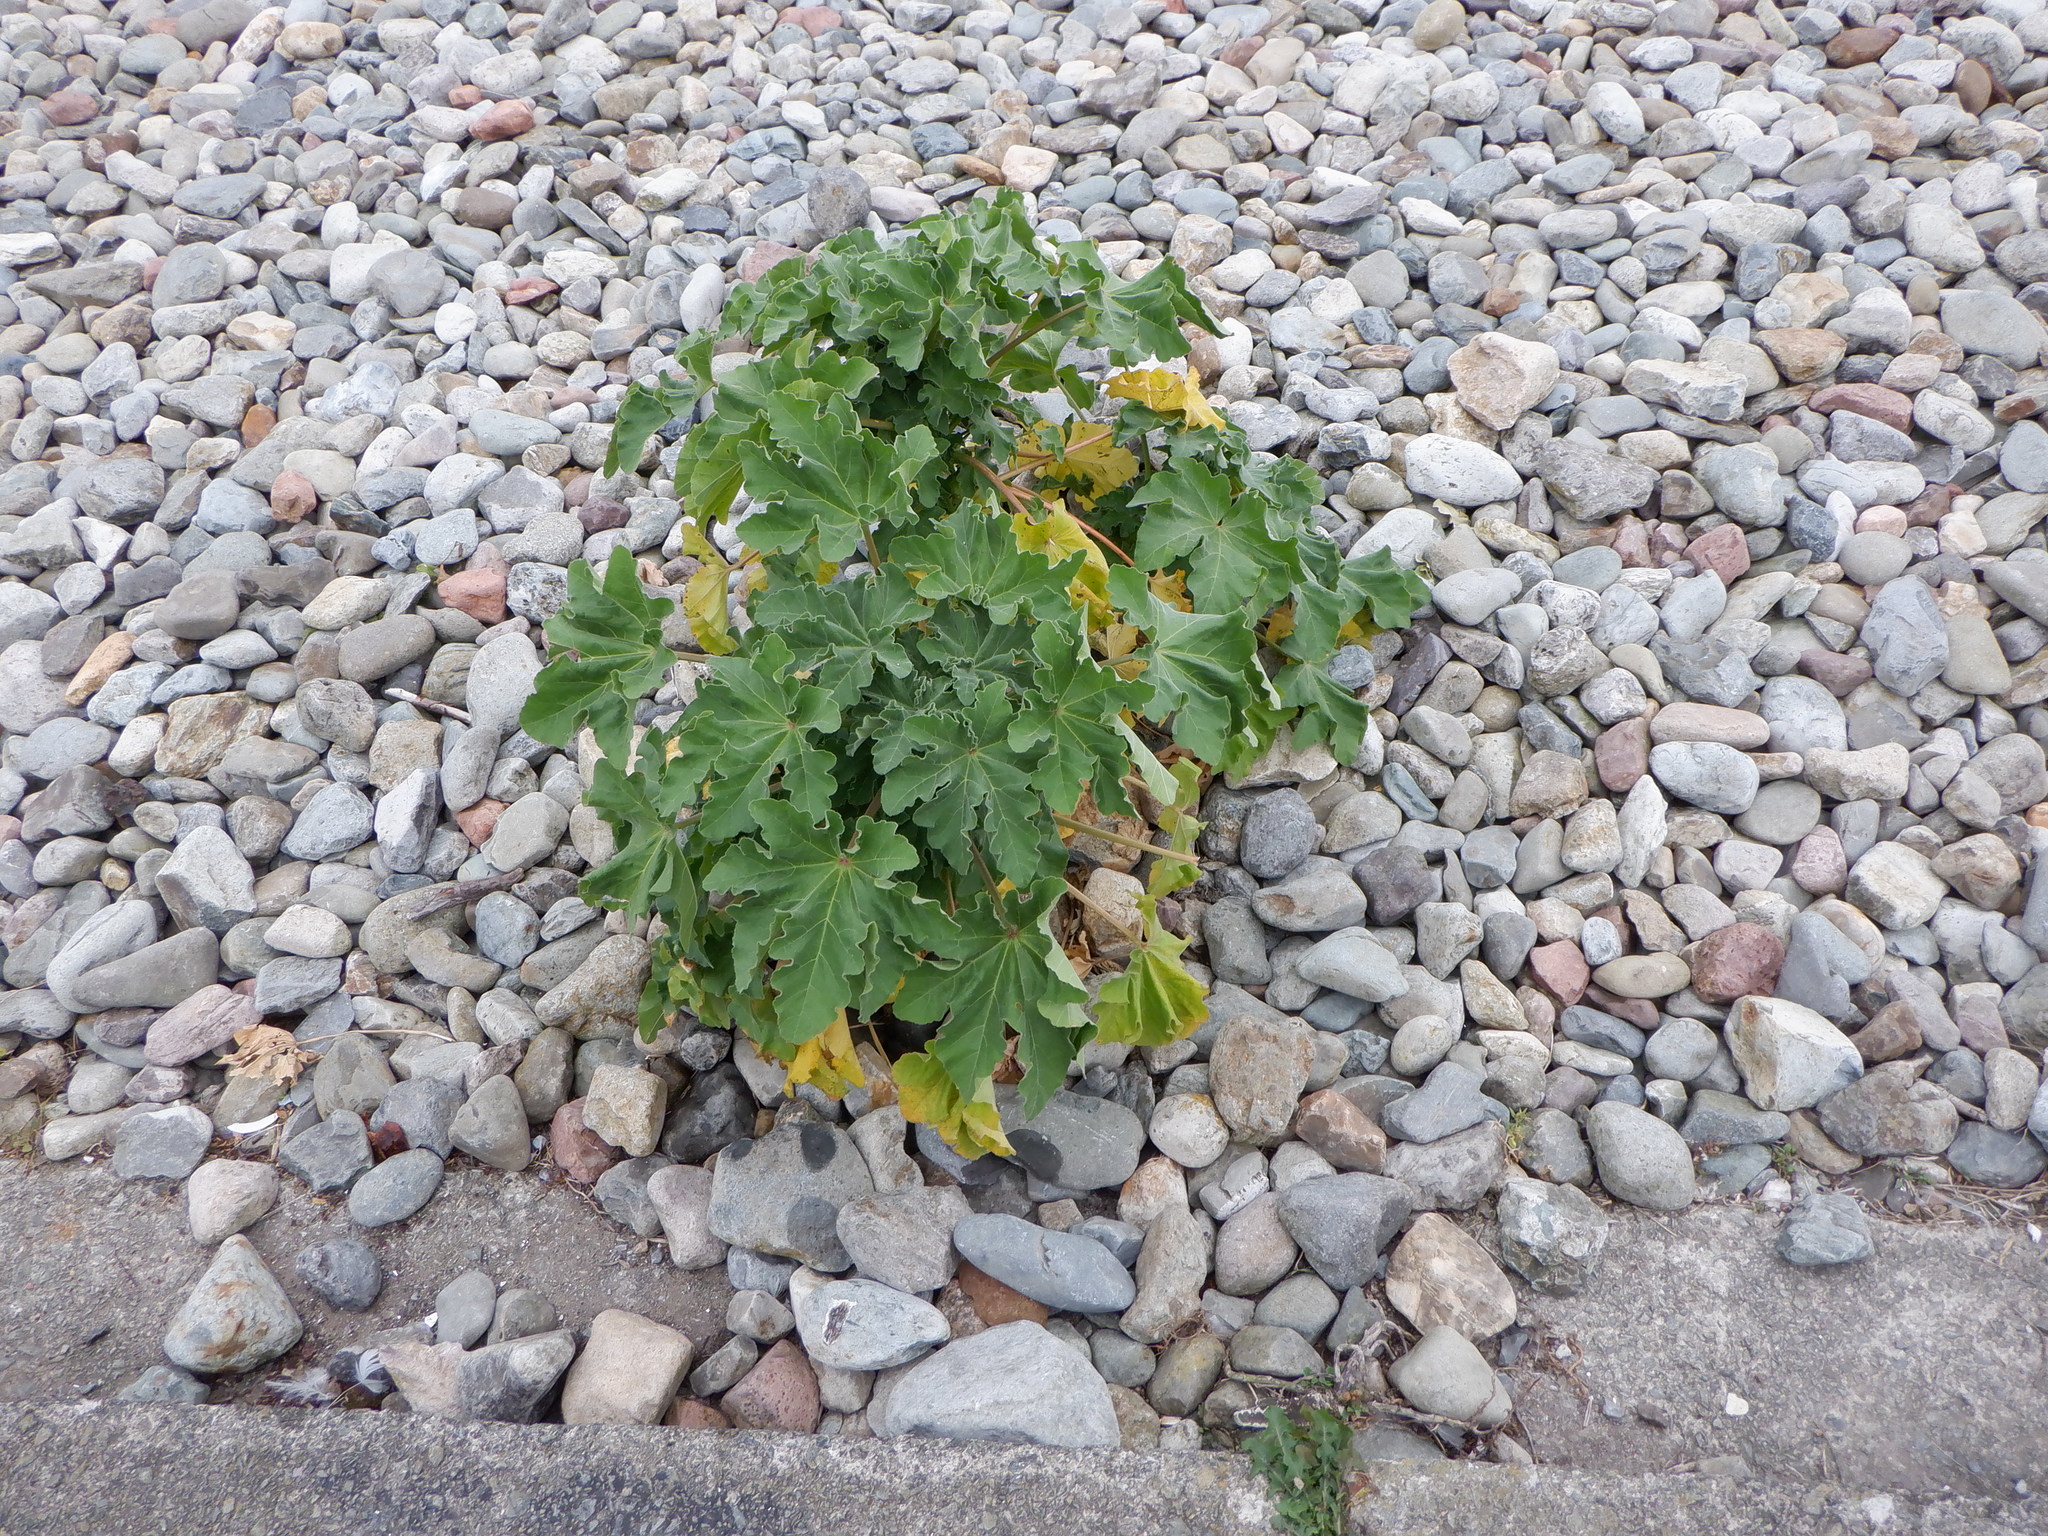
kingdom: Plantae
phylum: Tracheophyta
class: Magnoliopsida
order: Malvales
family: Malvaceae
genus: Malva
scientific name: Malva arborea
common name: Tree mallow
